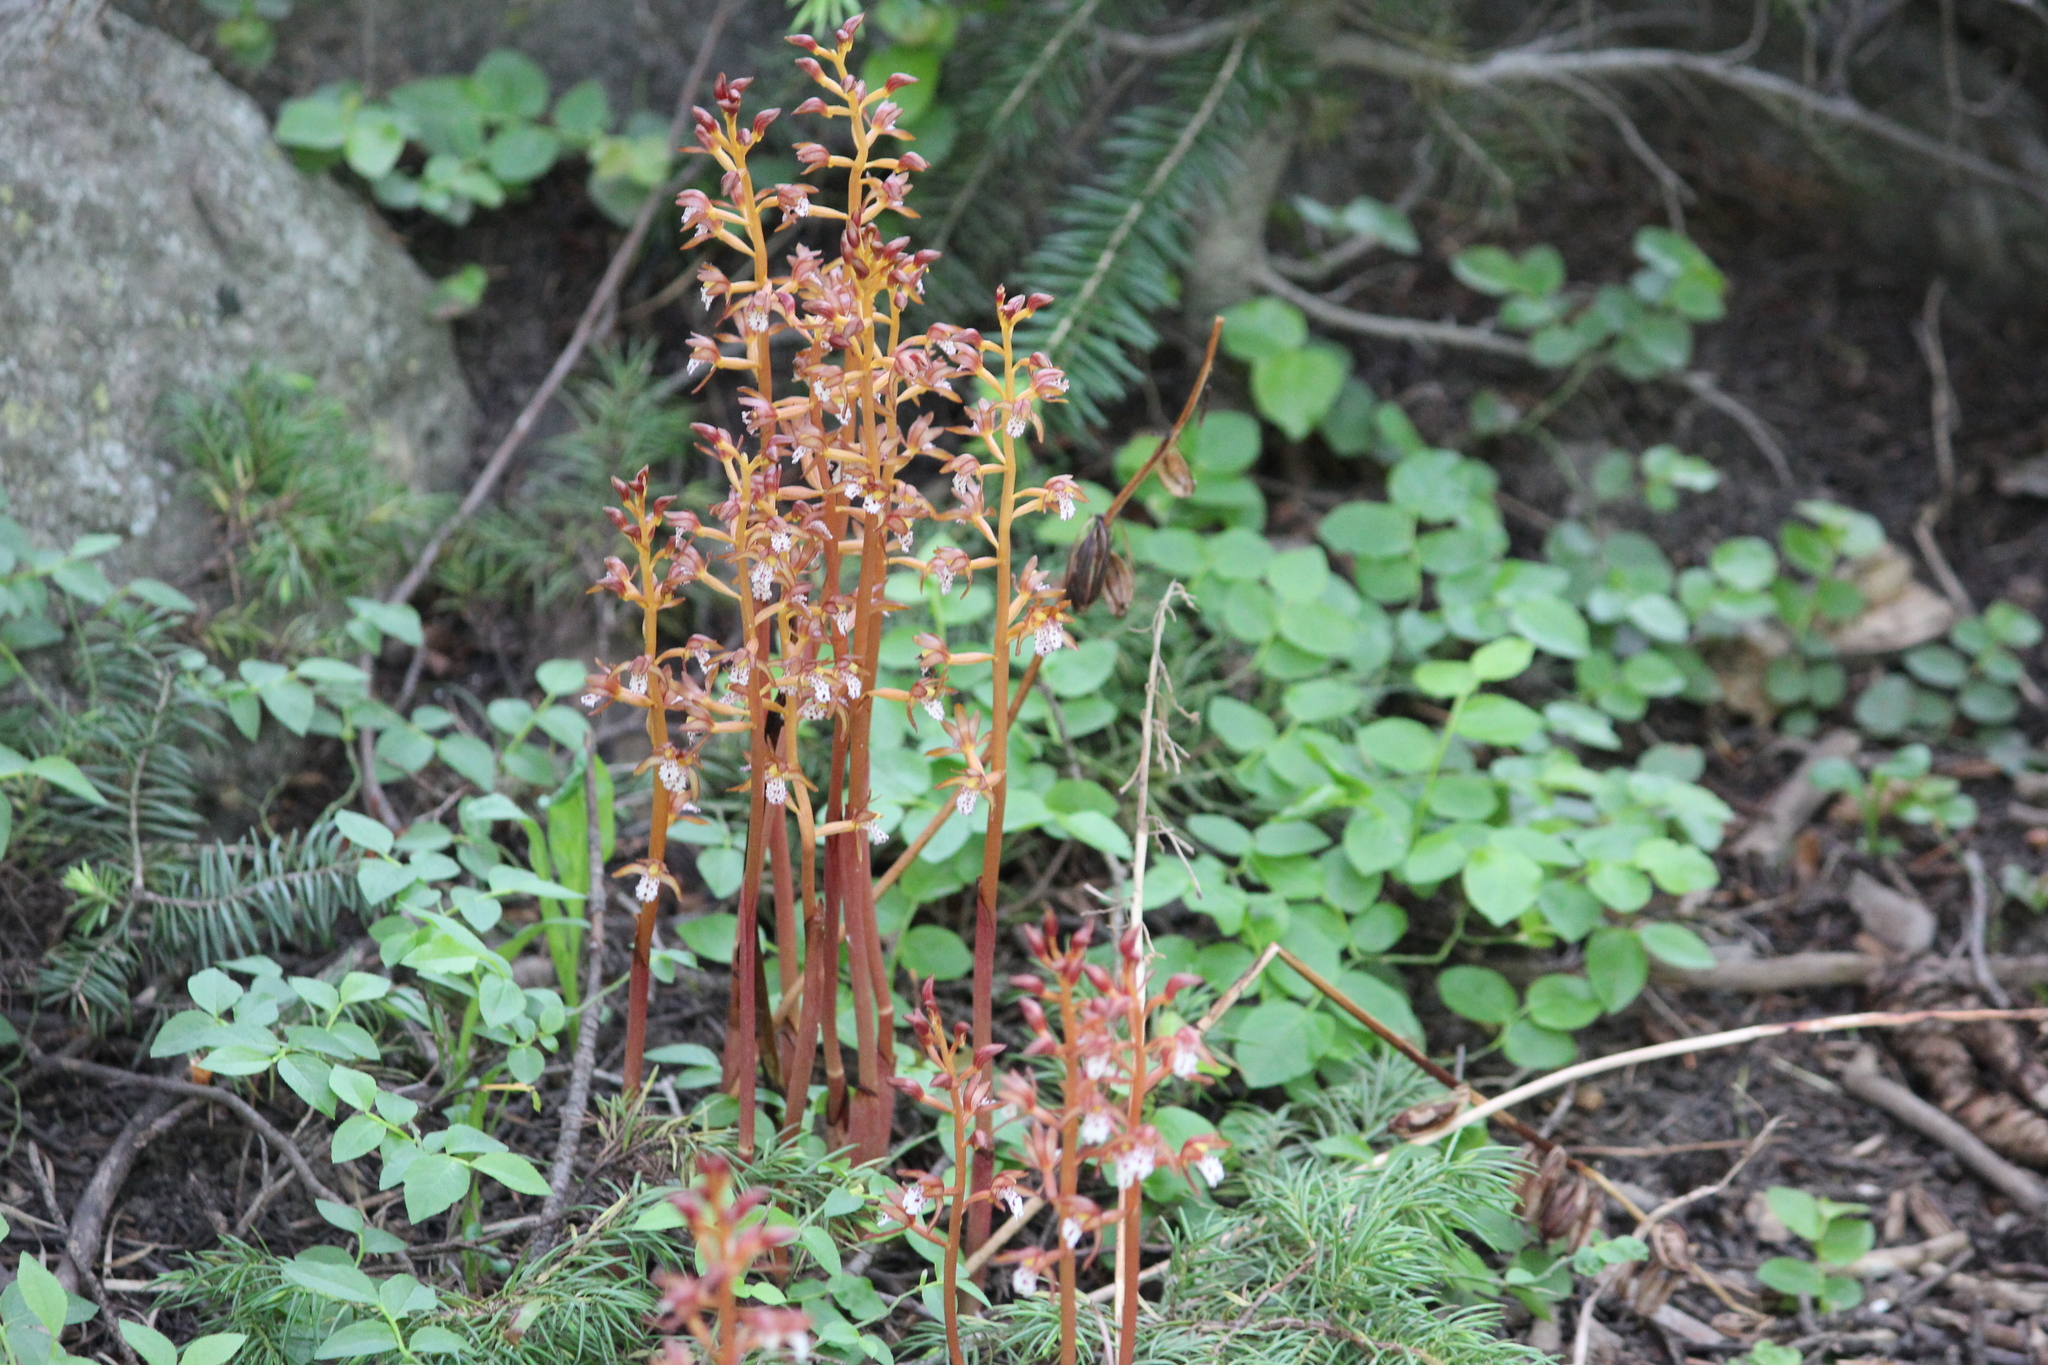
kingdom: Plantae
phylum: Tracheophyta
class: Liliopsida
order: Asparagales
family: Orchidaceae
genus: Corallorhiza
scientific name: Corallorhiza maculata
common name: Spotted coralroot
